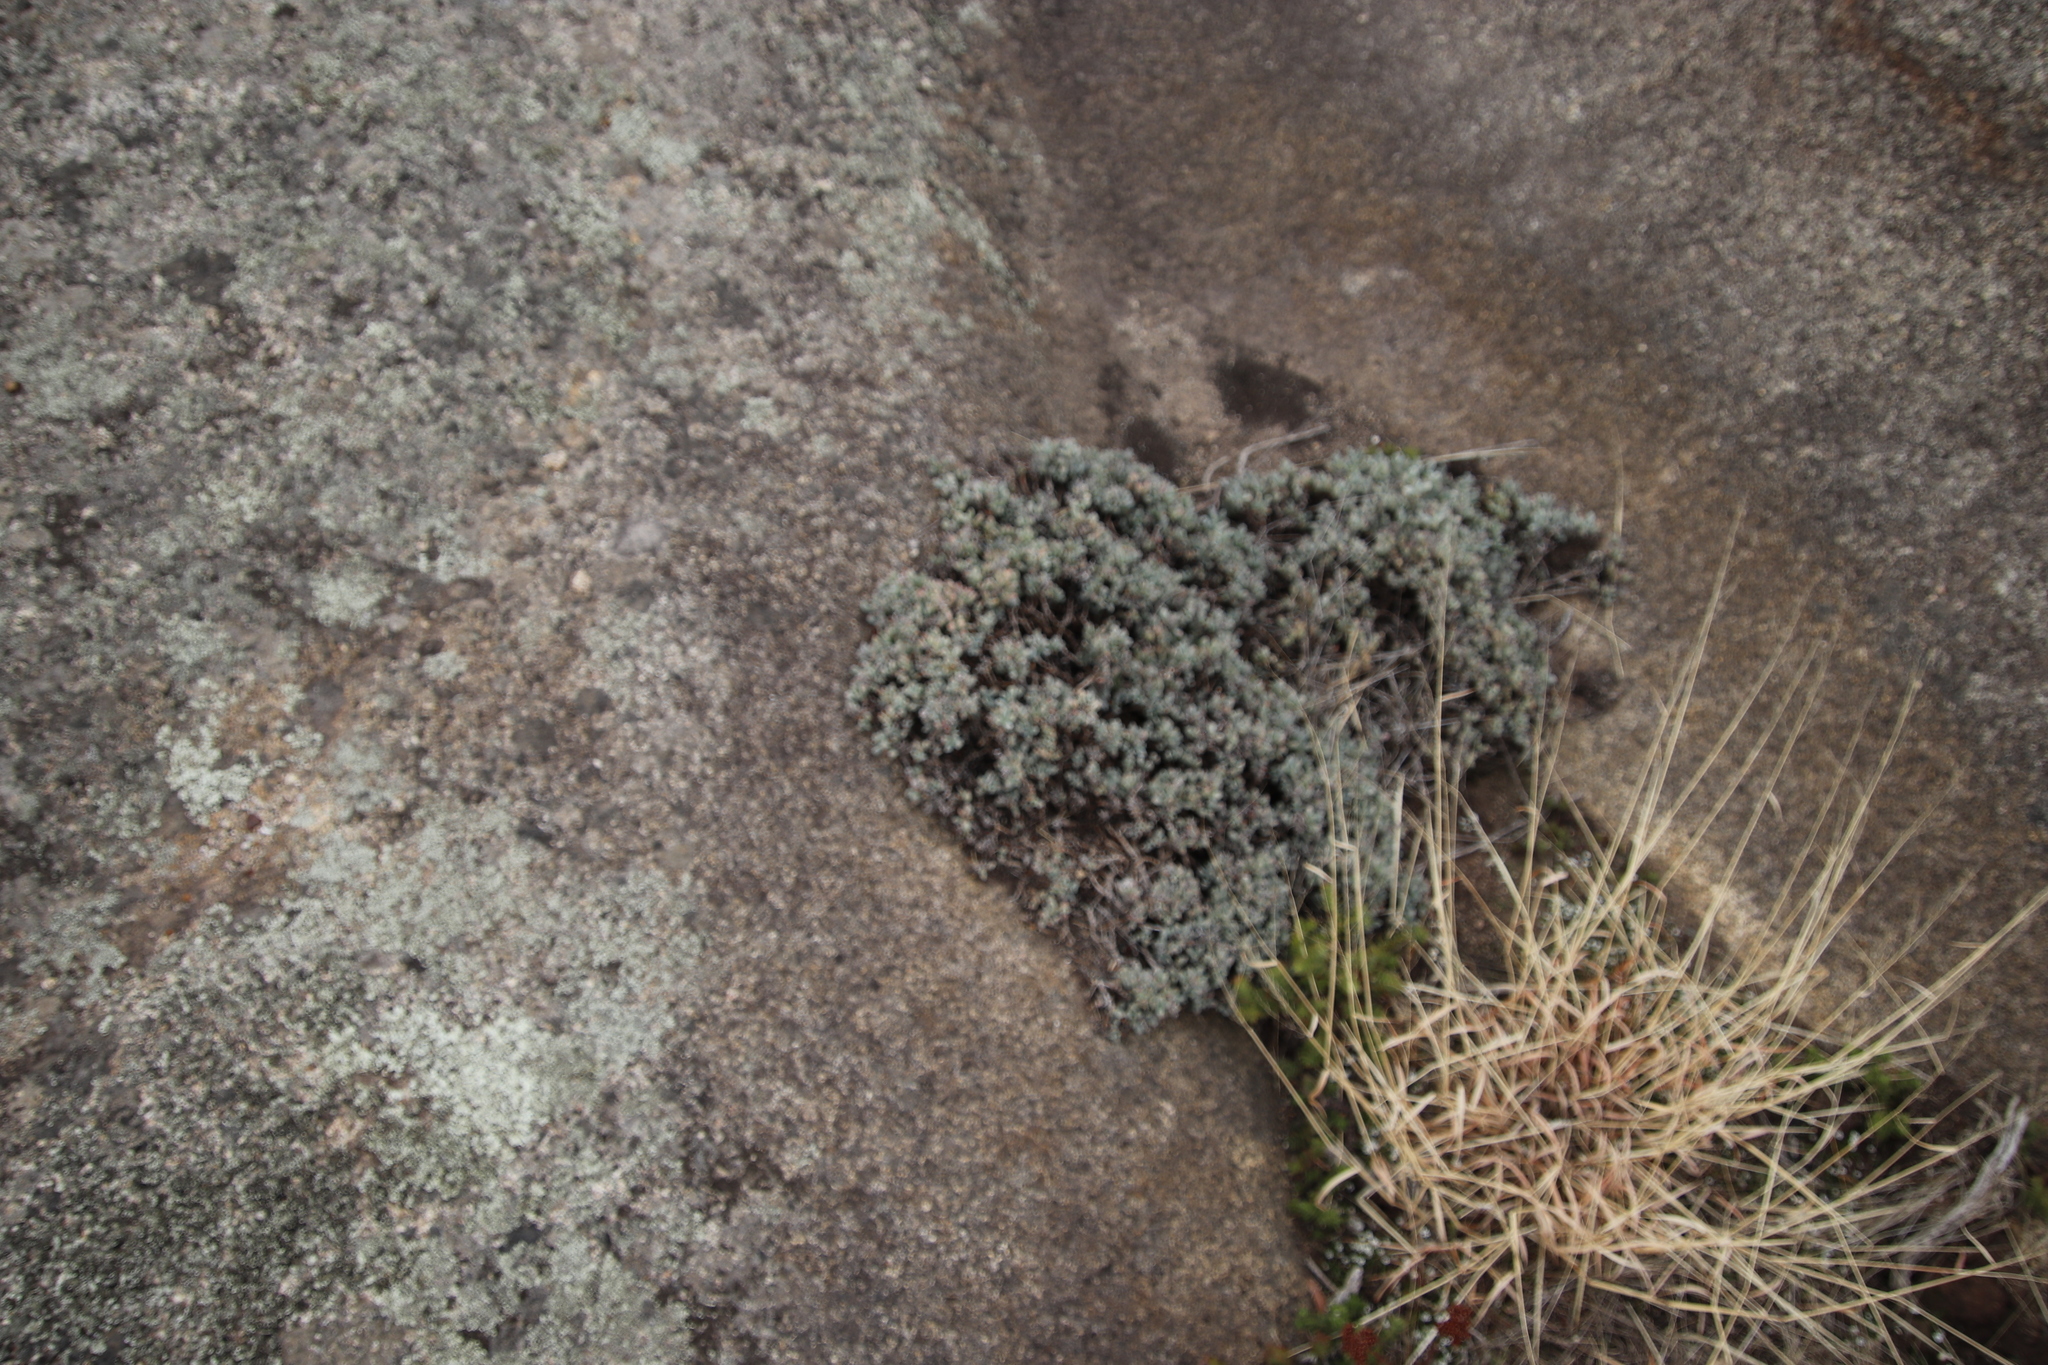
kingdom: Plantae
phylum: Tracheophyta
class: Magnoliopsida
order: Caryophyllales
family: Aizoaceae
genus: Oscularia
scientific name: Oscularia deltoides
